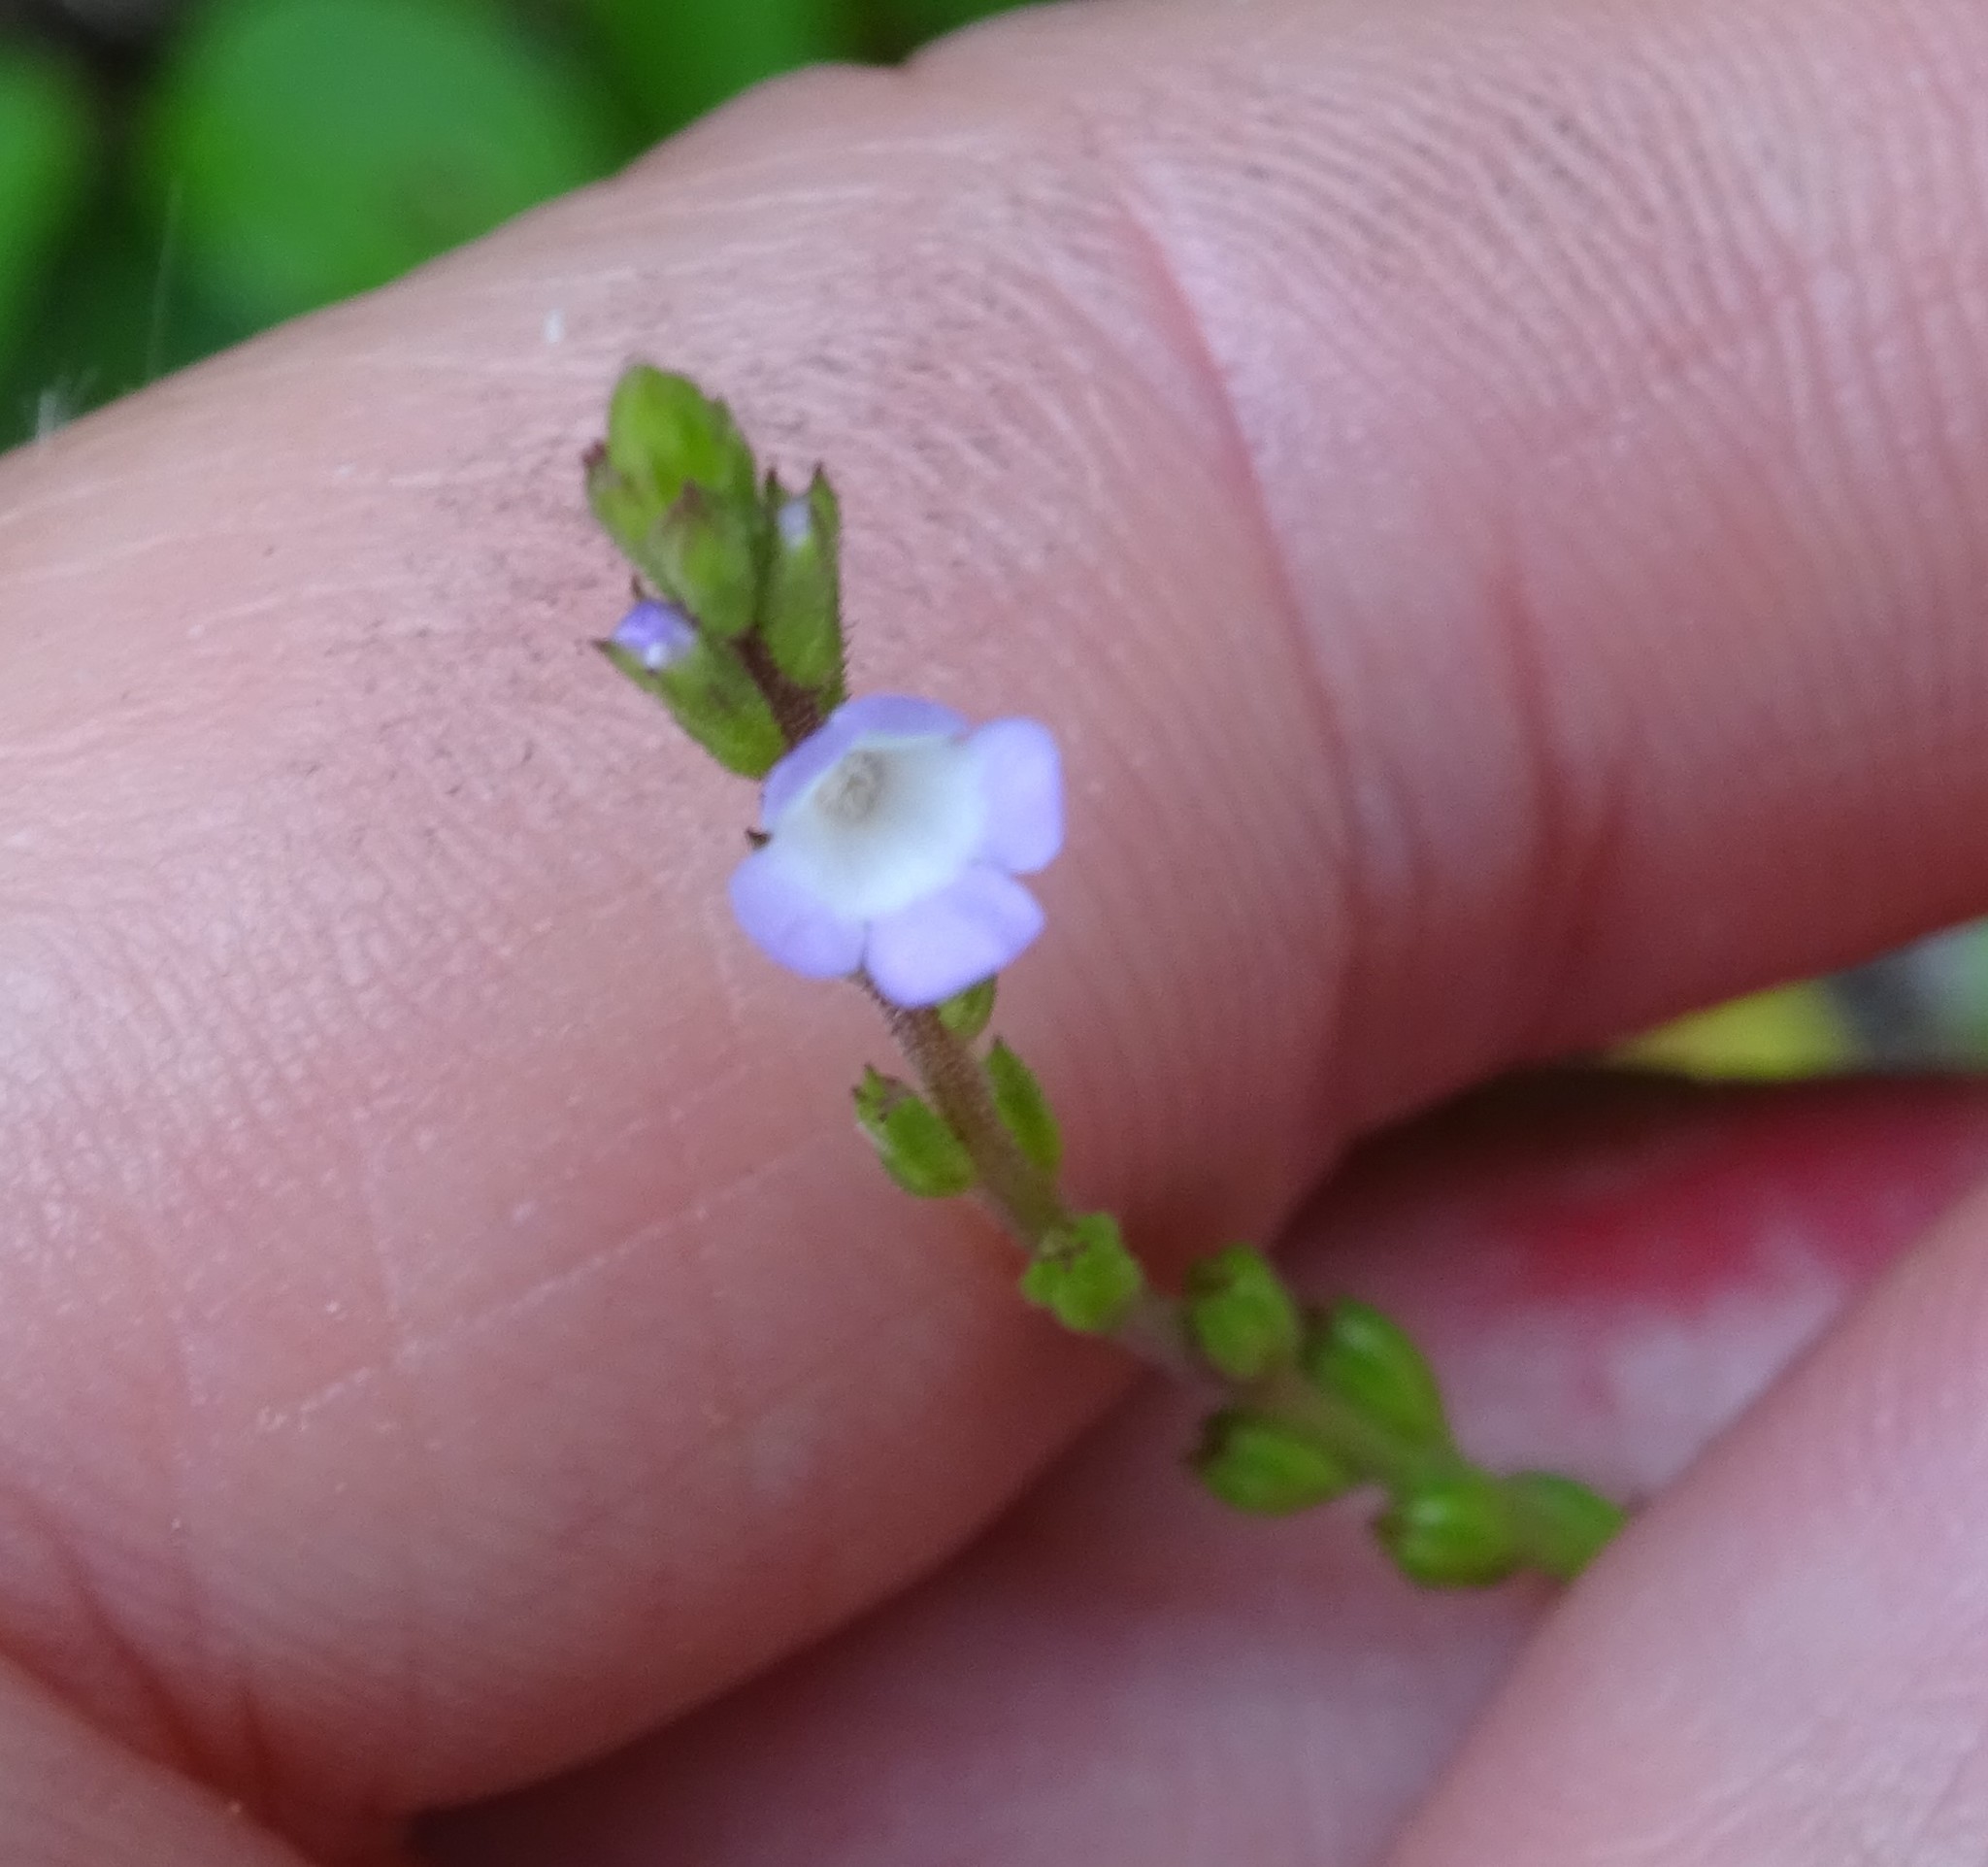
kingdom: Plantae
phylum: Tracheophyta
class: Magnoliopsida
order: Lamiales
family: Verbenaceae
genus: Verbena
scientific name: Verbena officinalis
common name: Vervain
